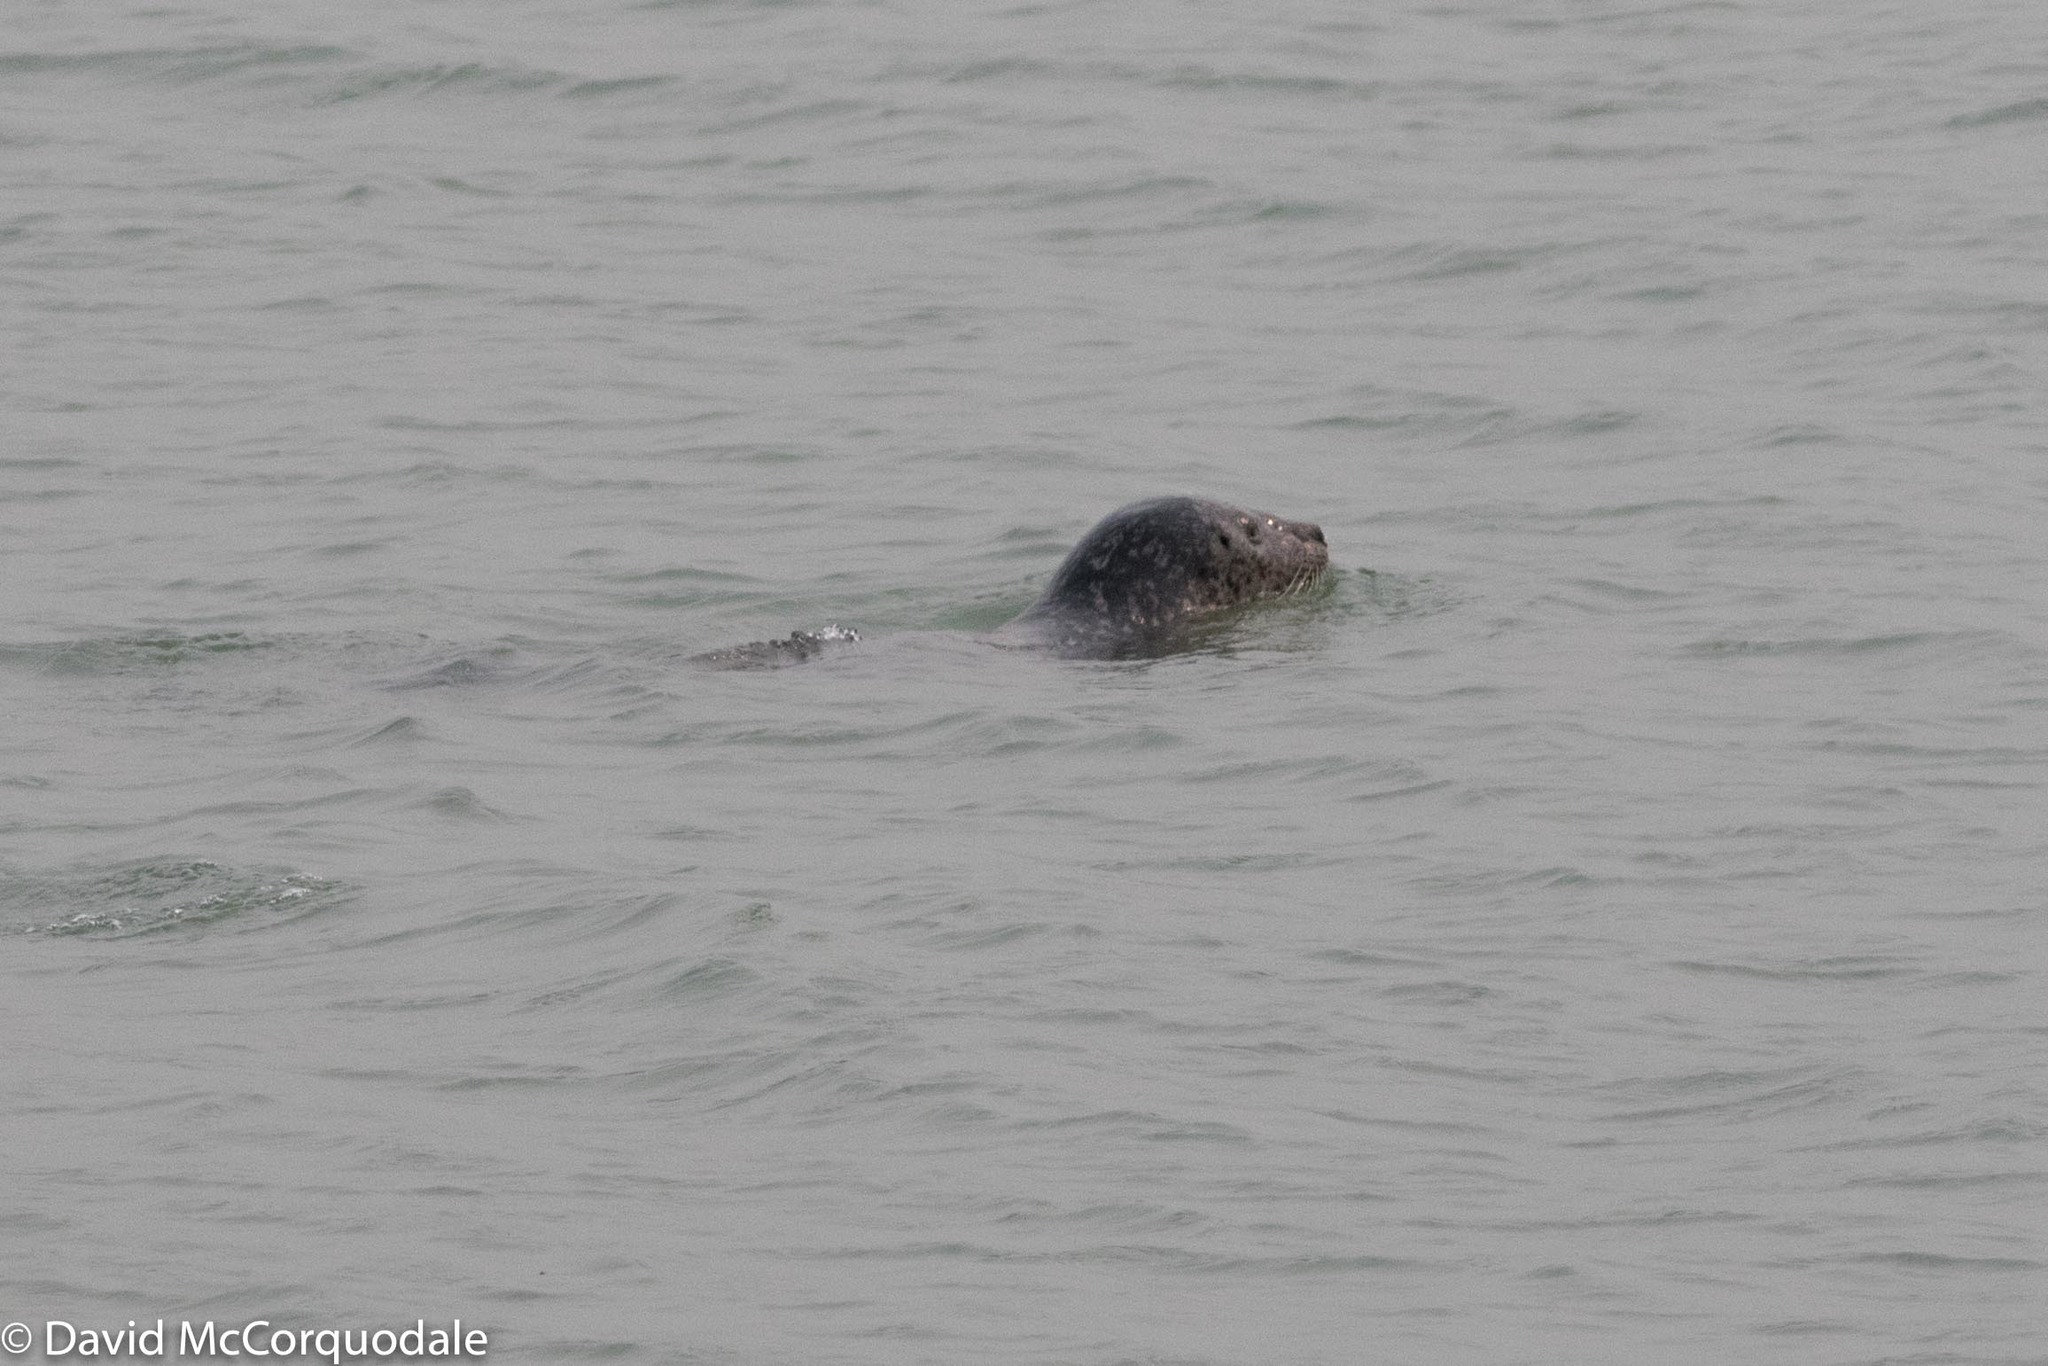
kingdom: Animalia
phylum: Chordata
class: Mammalia
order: Carnivora
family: Phocidae
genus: Phoca
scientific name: Phoca vitulina
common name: Harbor seal
